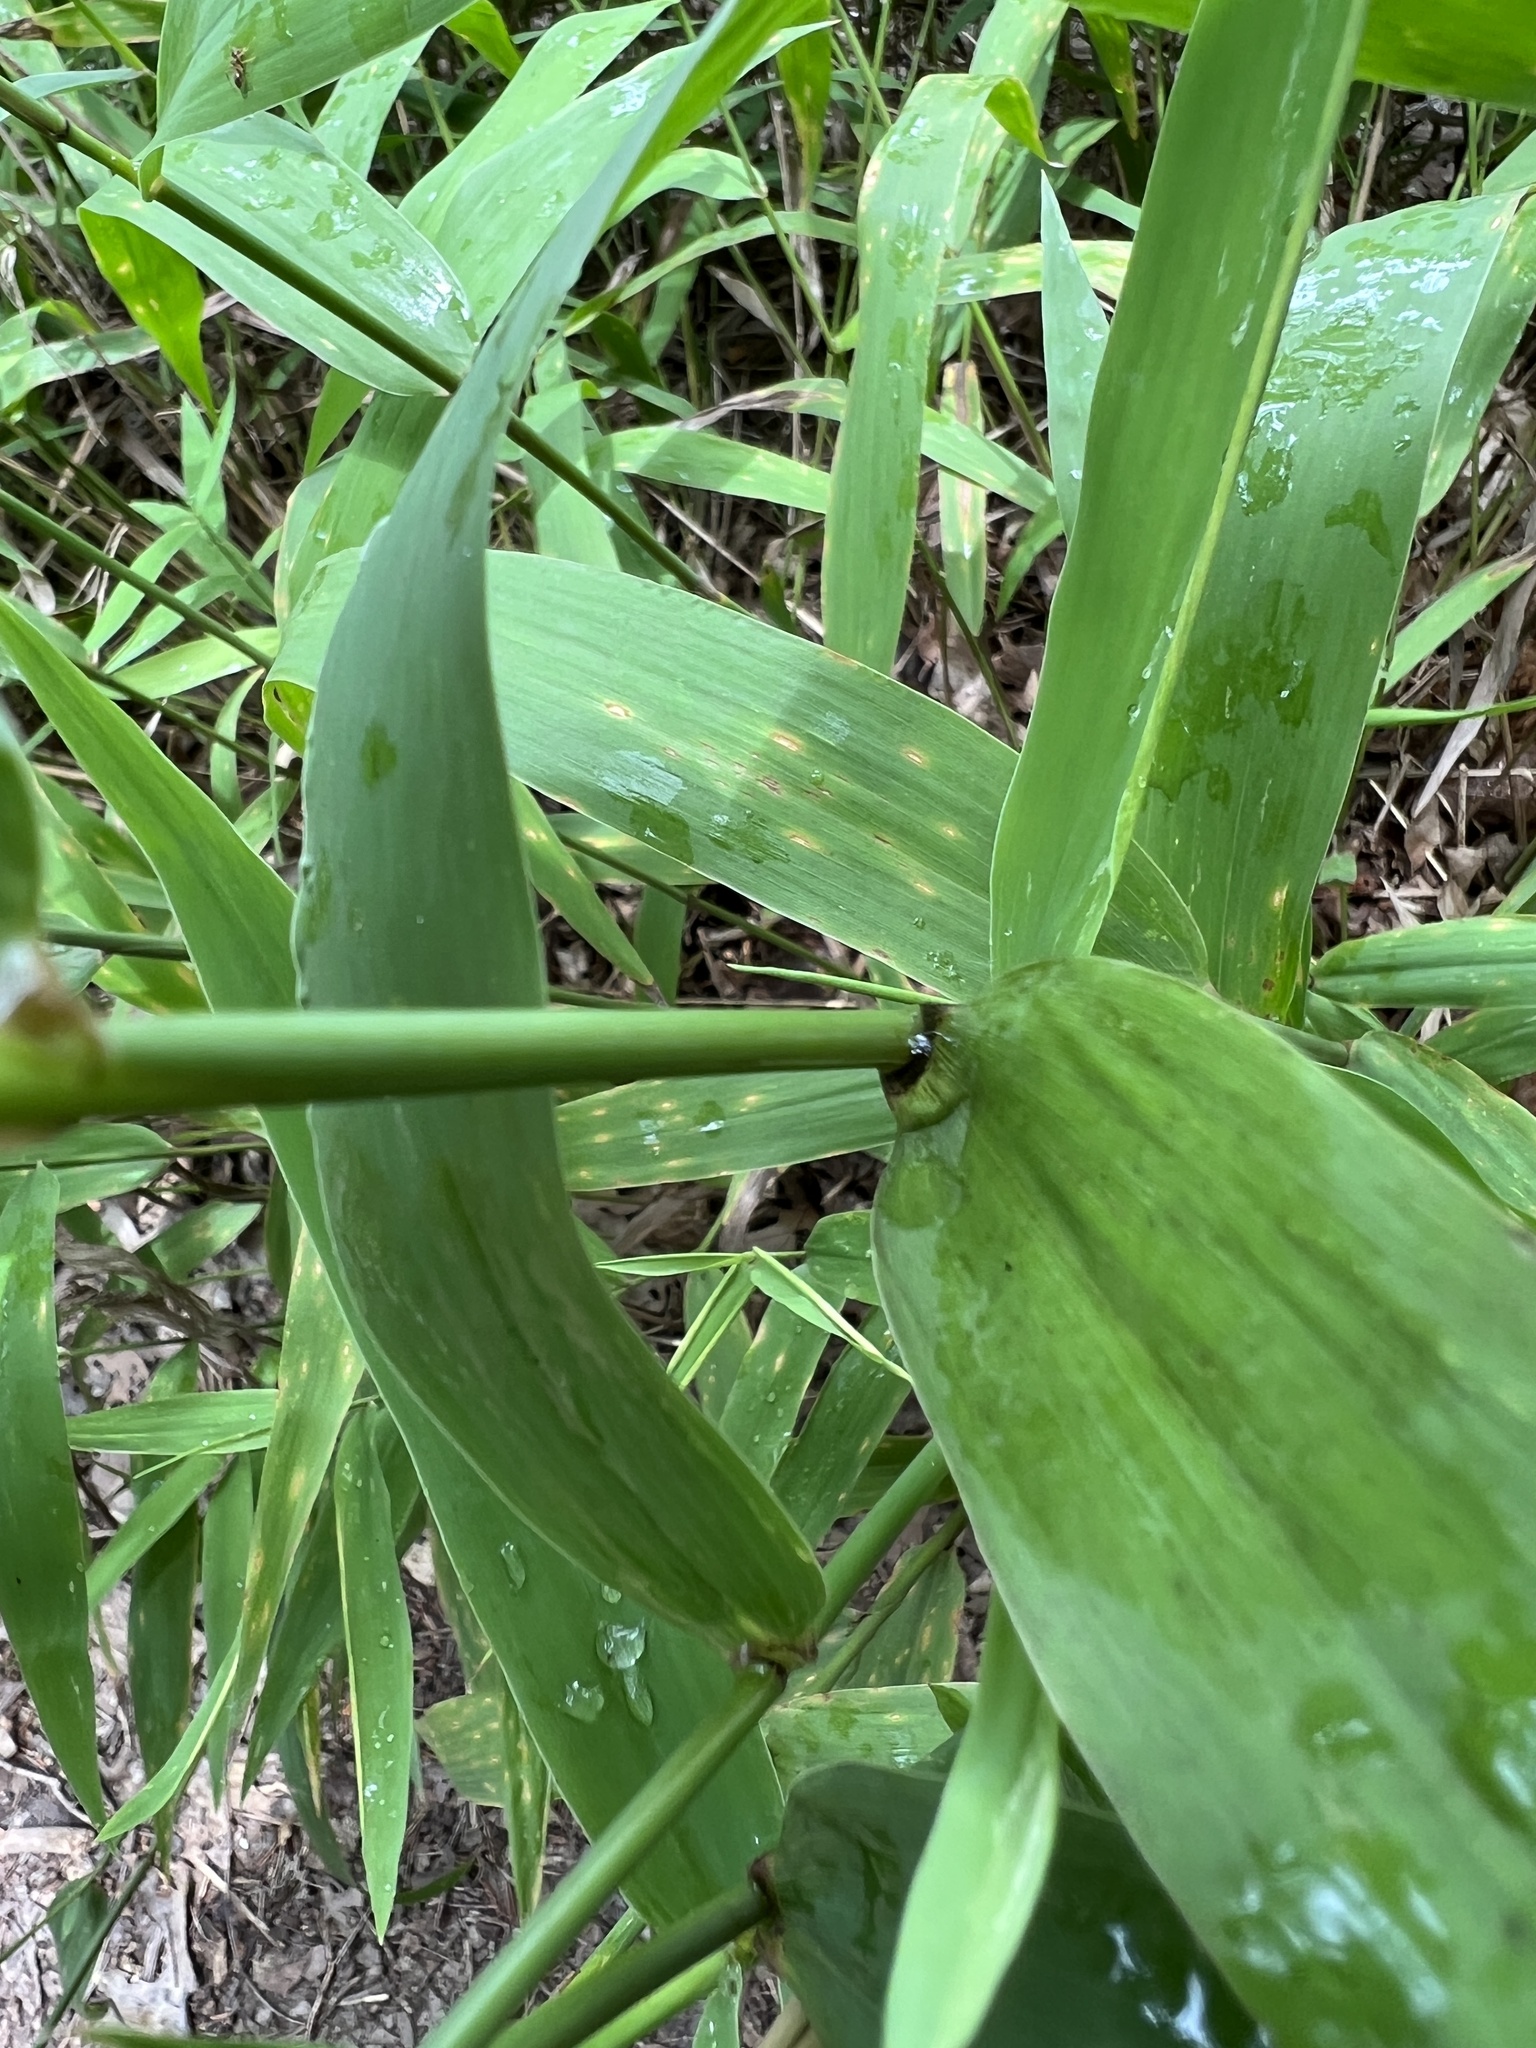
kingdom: Plantae
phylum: Tracheophyta
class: Liliopsida
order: Poales
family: Poaceae
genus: Chasmanthium
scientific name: Chasmanthium latifolium
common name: Broad-leaved chasmanthium
